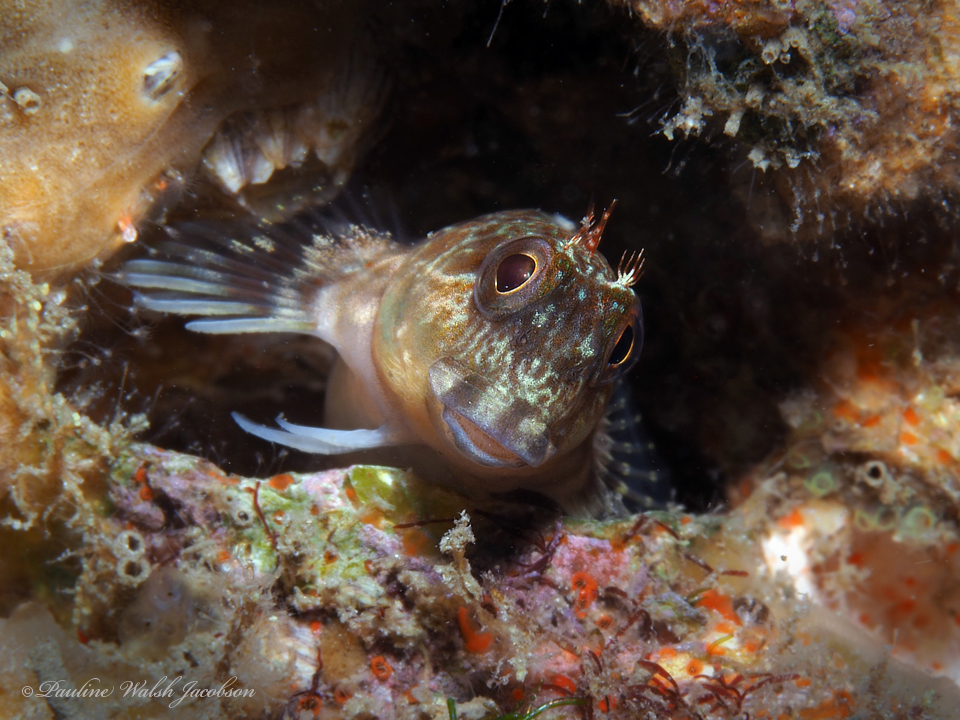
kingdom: Animalia
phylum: Chordata
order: Perciformes
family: Blenniidae
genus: Scartella
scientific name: Scartella cristata
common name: Molly miller
